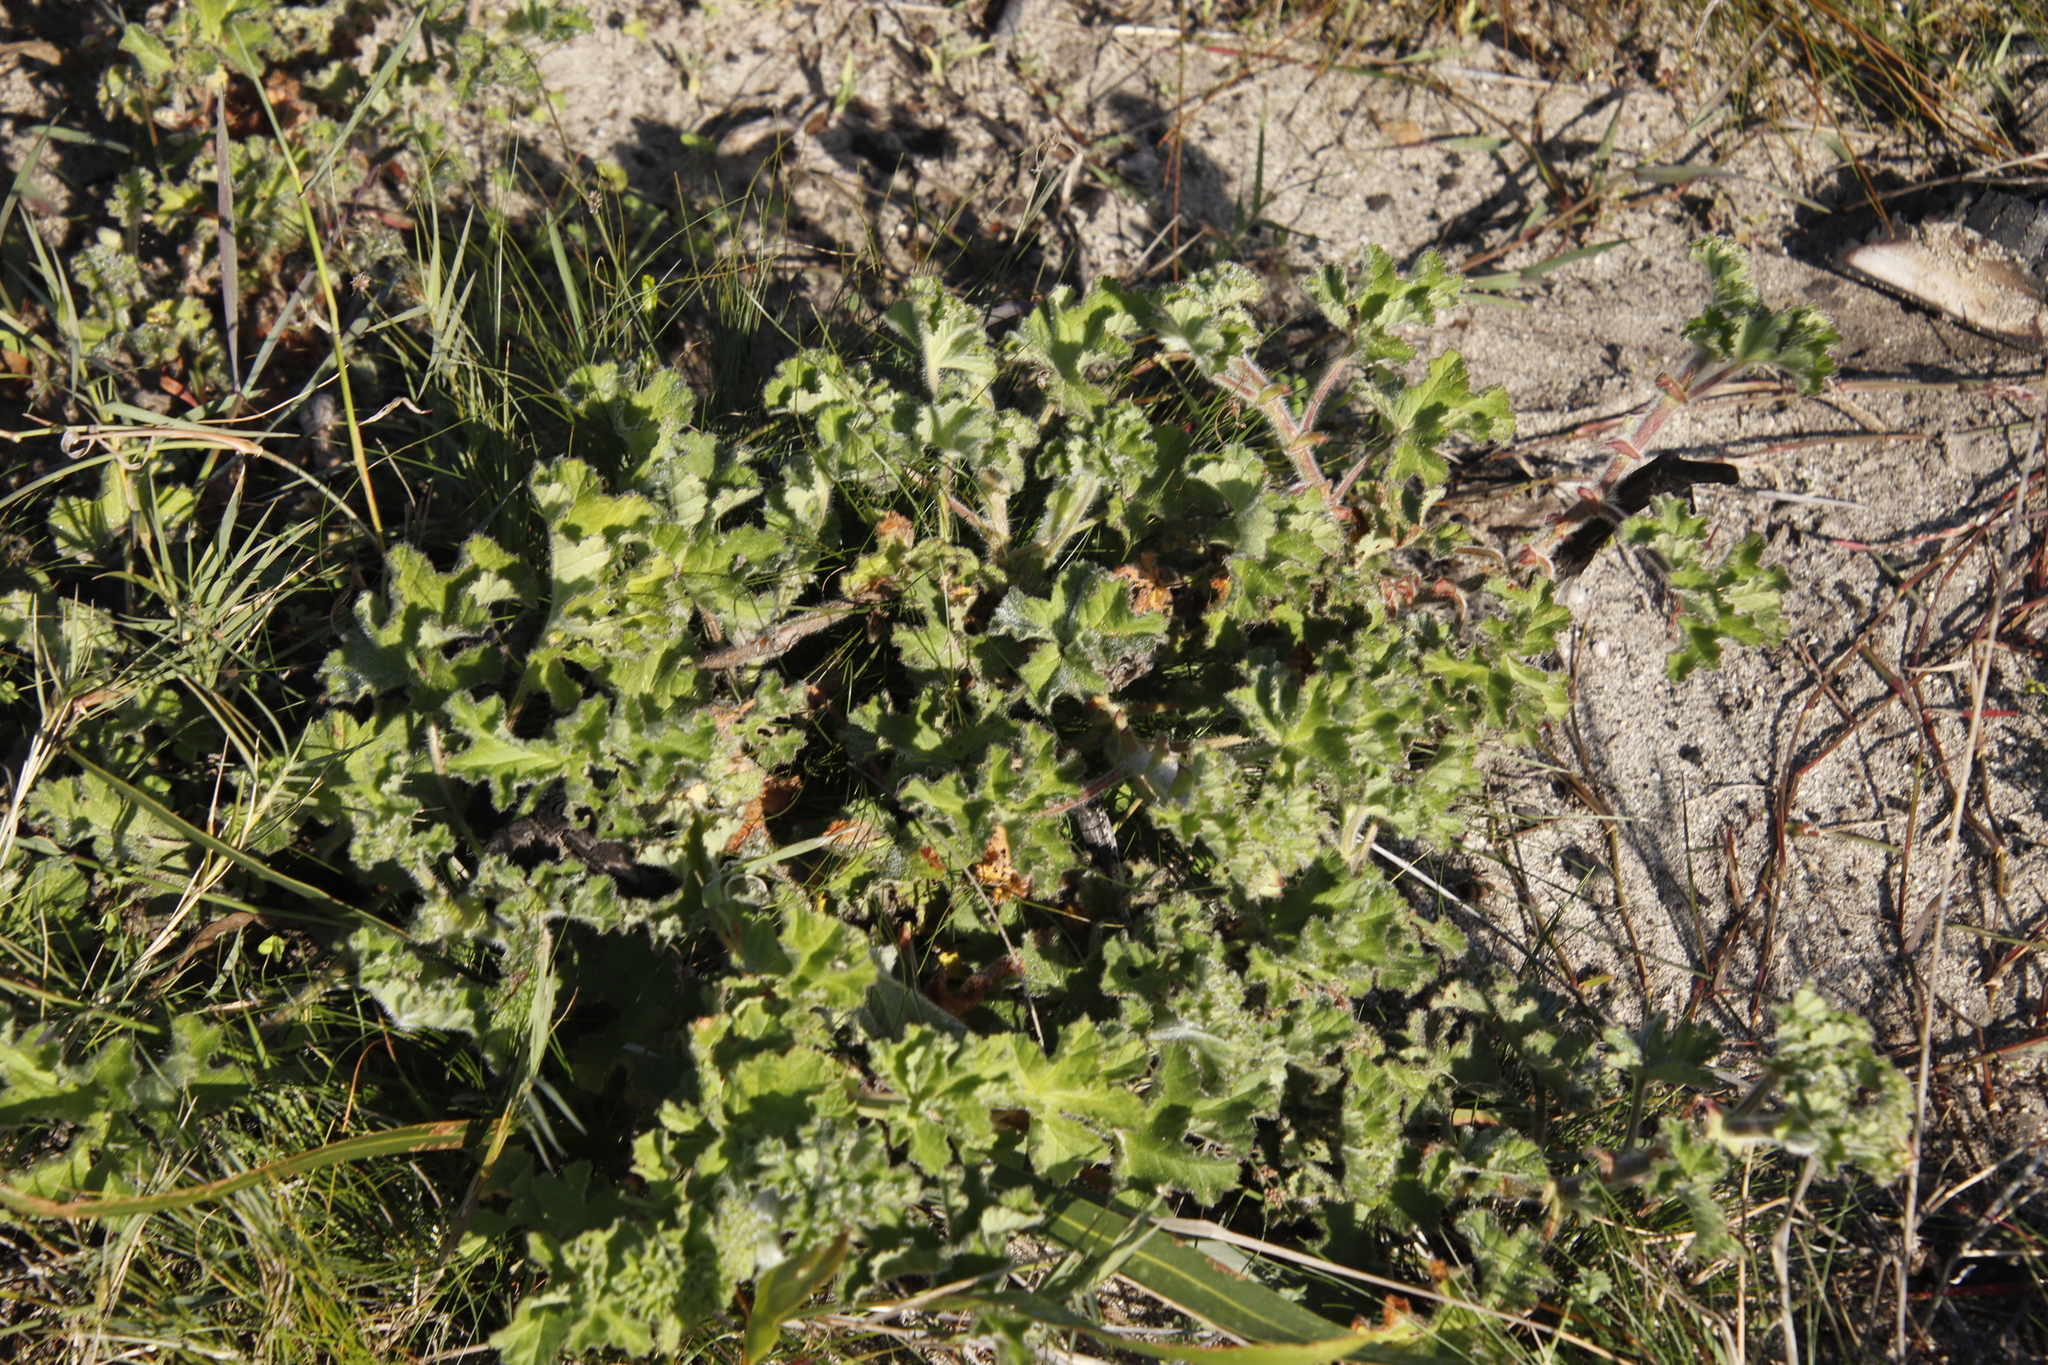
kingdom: Plantae
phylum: Tracheophyta
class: Magnoliopsida
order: Geraniales
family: Geraniaceae
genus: Pelargonium
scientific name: Pelargonium capitatum
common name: Rose scented geranium
